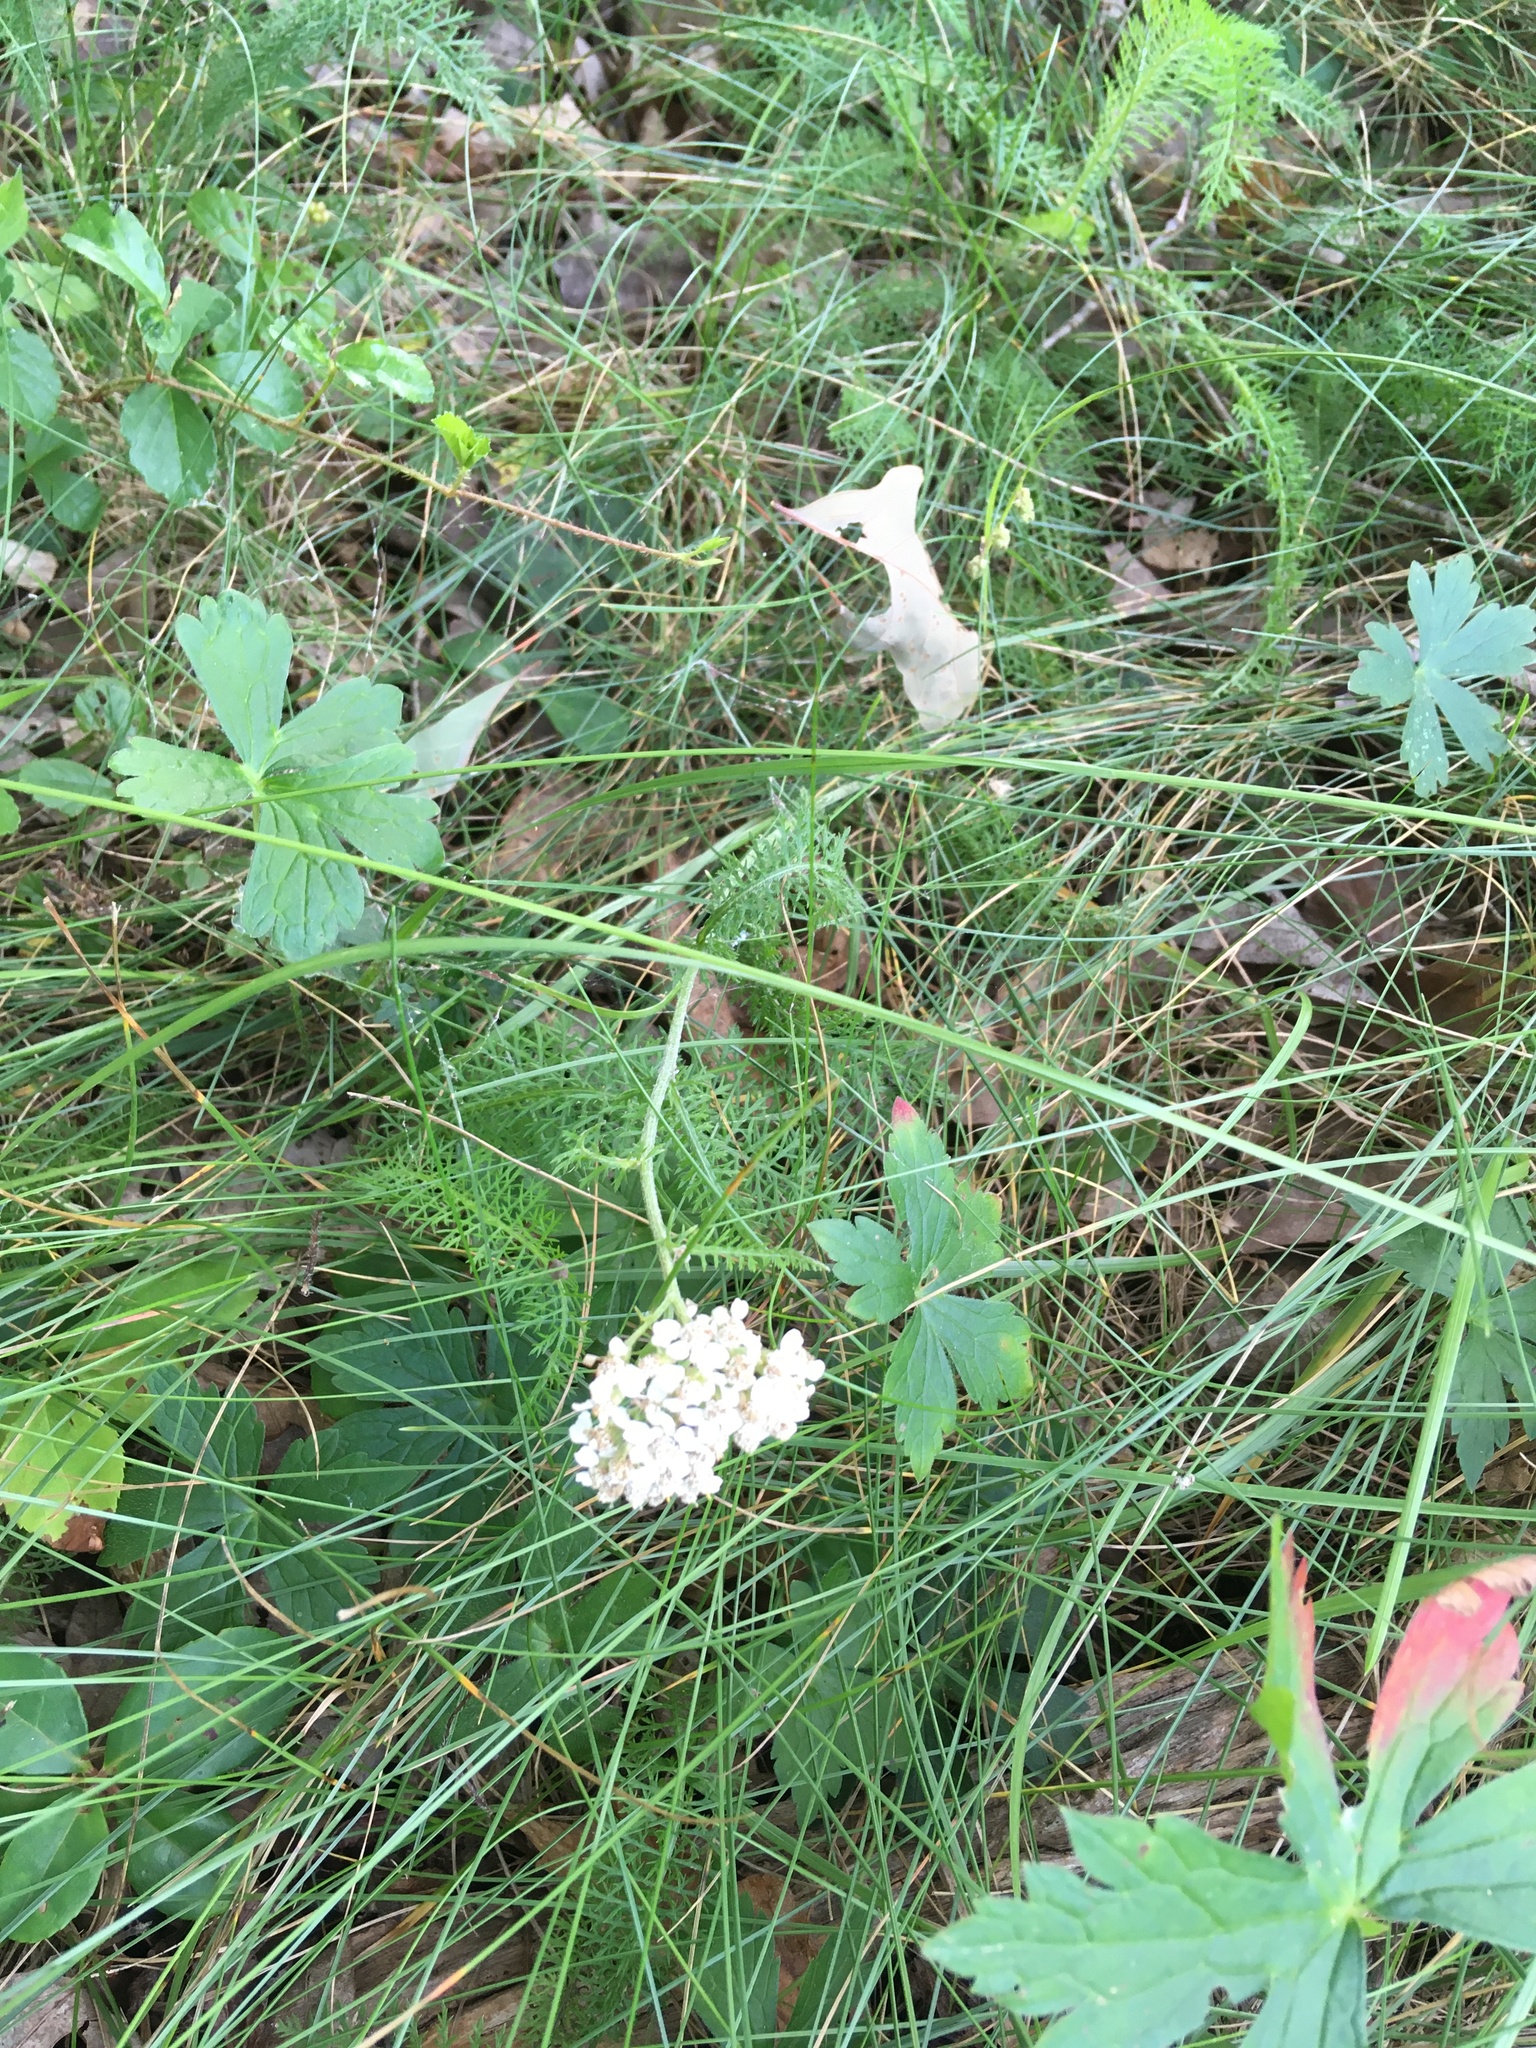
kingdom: Plantae
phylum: Tracheophyta
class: Magnoliopsida
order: Asterales
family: Asteraceae
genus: Achillea
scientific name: Achillea millefolium
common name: Yarrow
